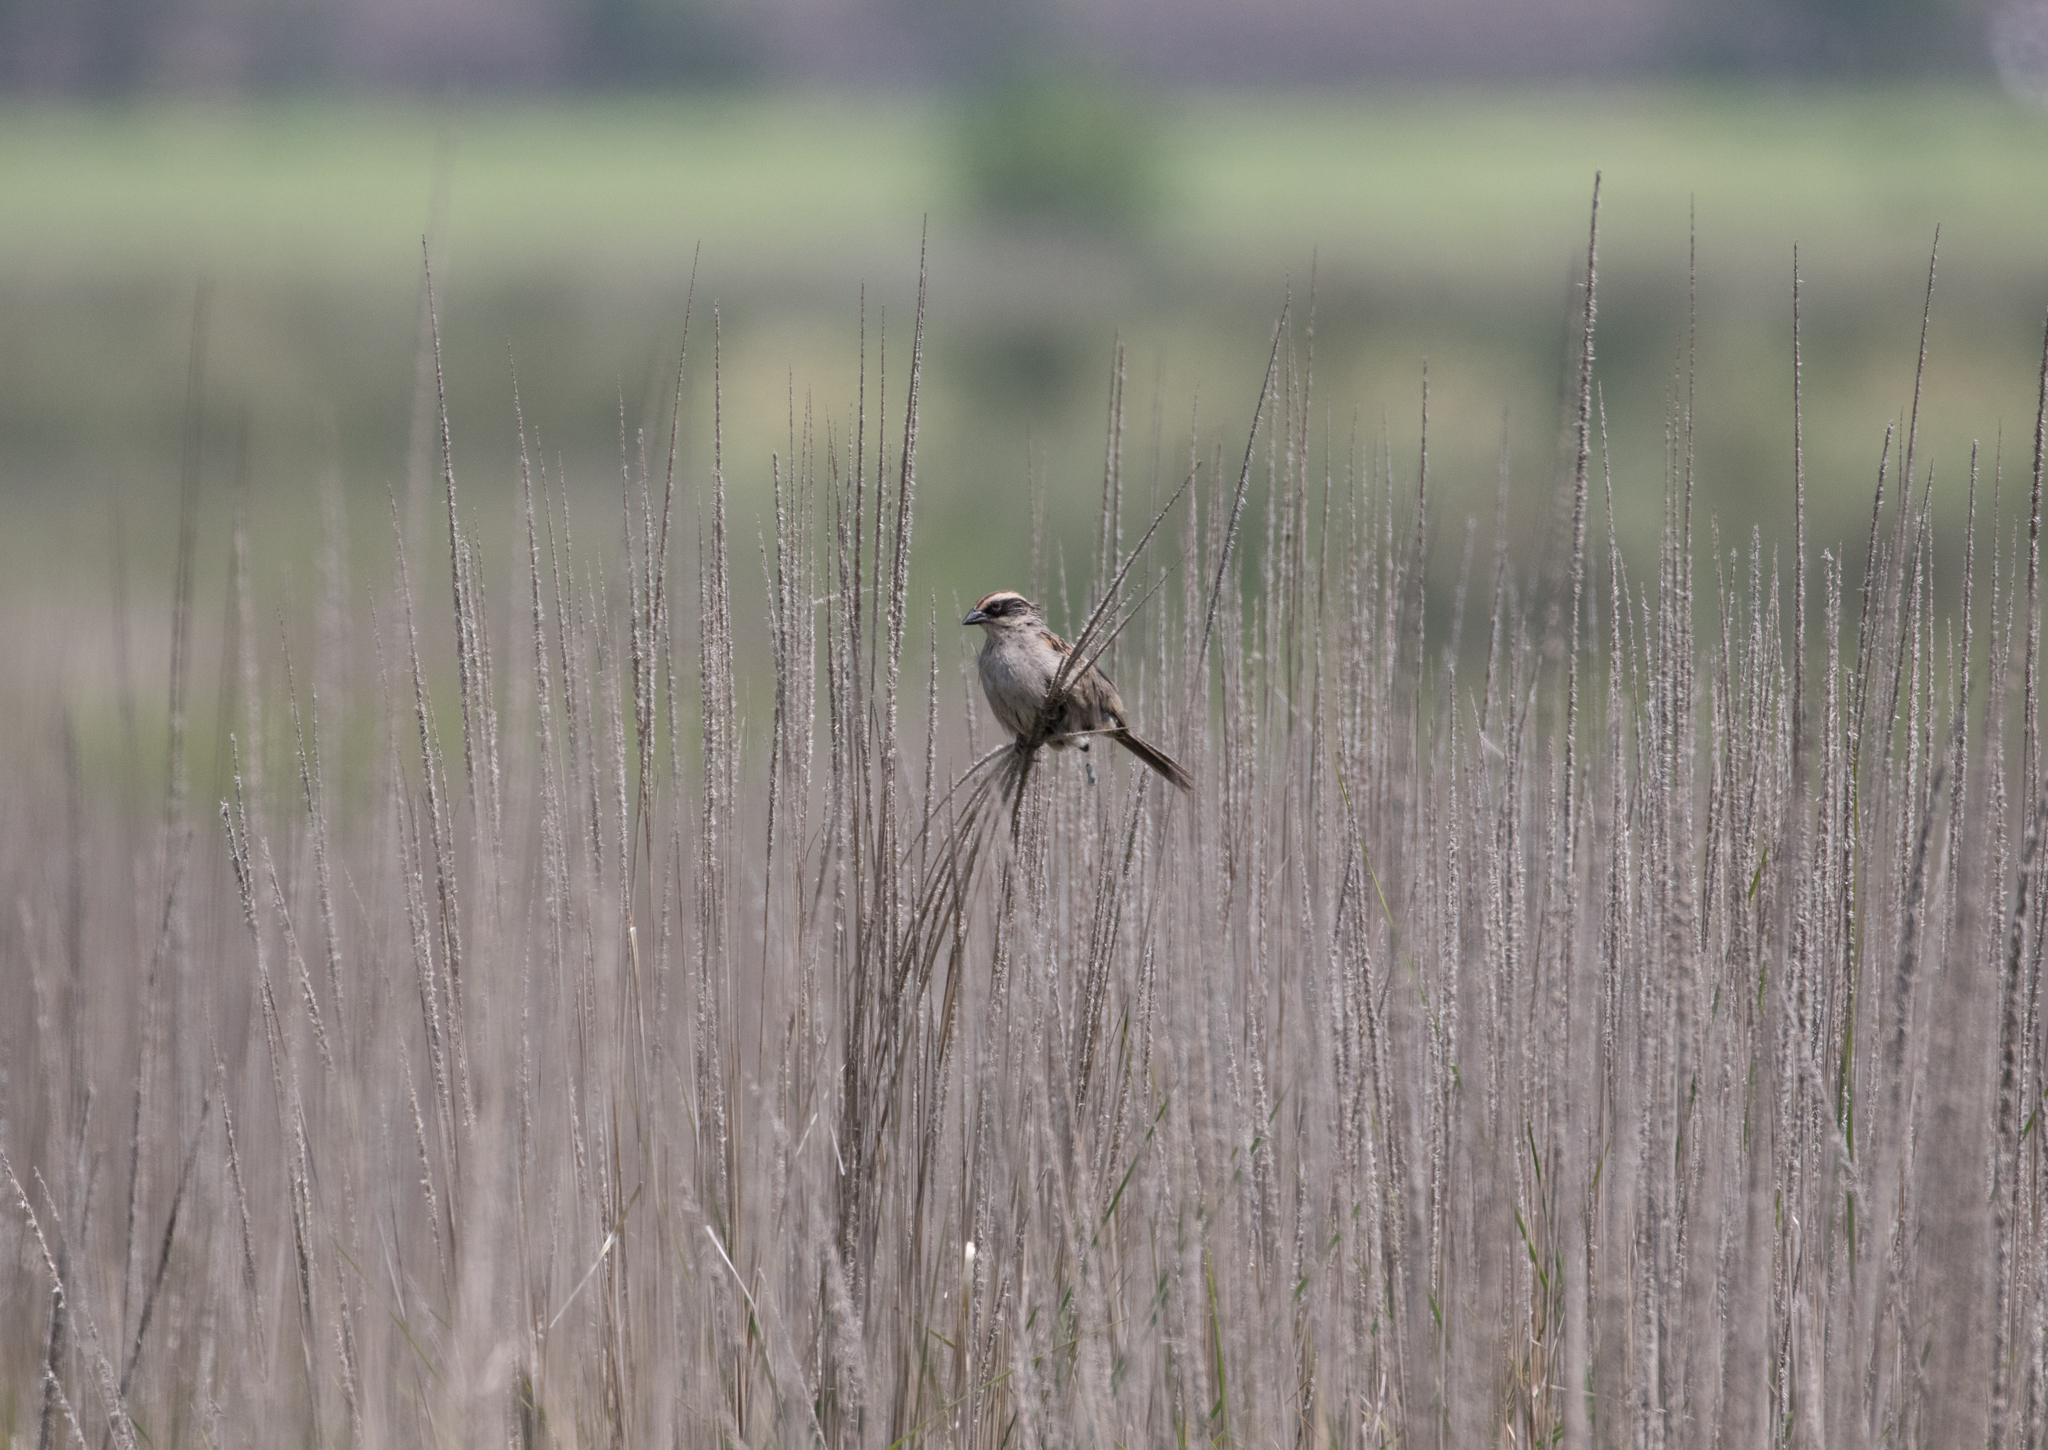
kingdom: Animalia
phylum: Chordata
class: Aves
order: Passeriformes
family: Passerellidae
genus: Oriturus
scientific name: Oriturus superciliosus
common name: Striped sparrow
